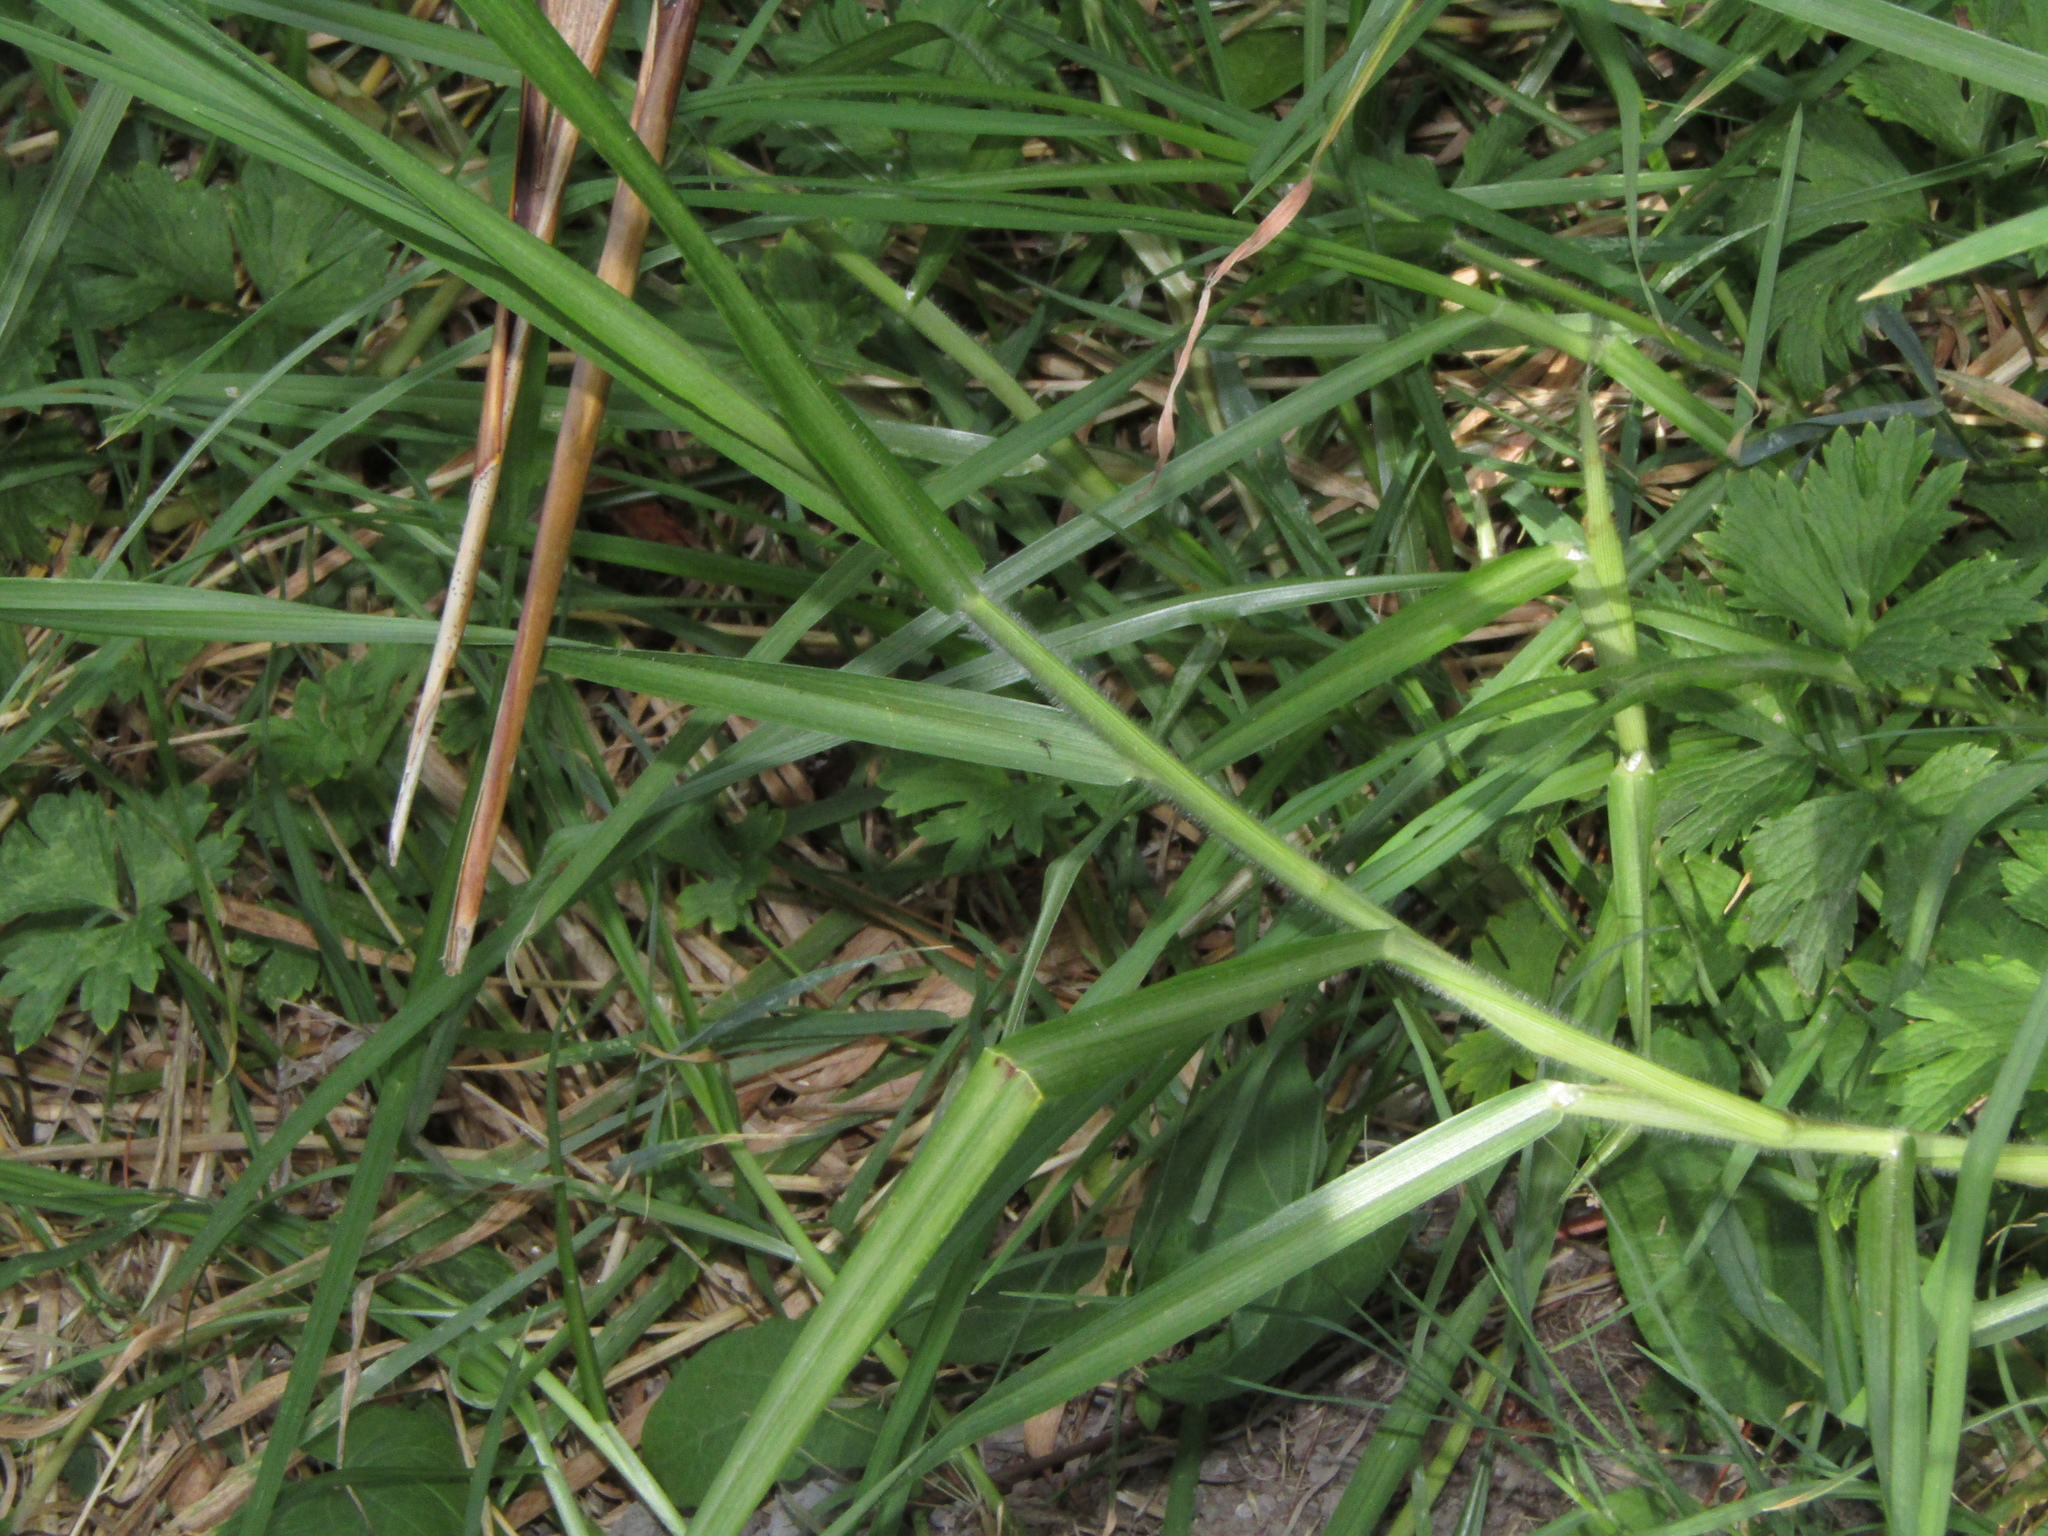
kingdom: Plantae
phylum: Tracheophyta
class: Liliopsida
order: Poales
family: Poaceae
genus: Cenchrus
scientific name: Cenchrus clandestinus
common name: Kikuyugrass
